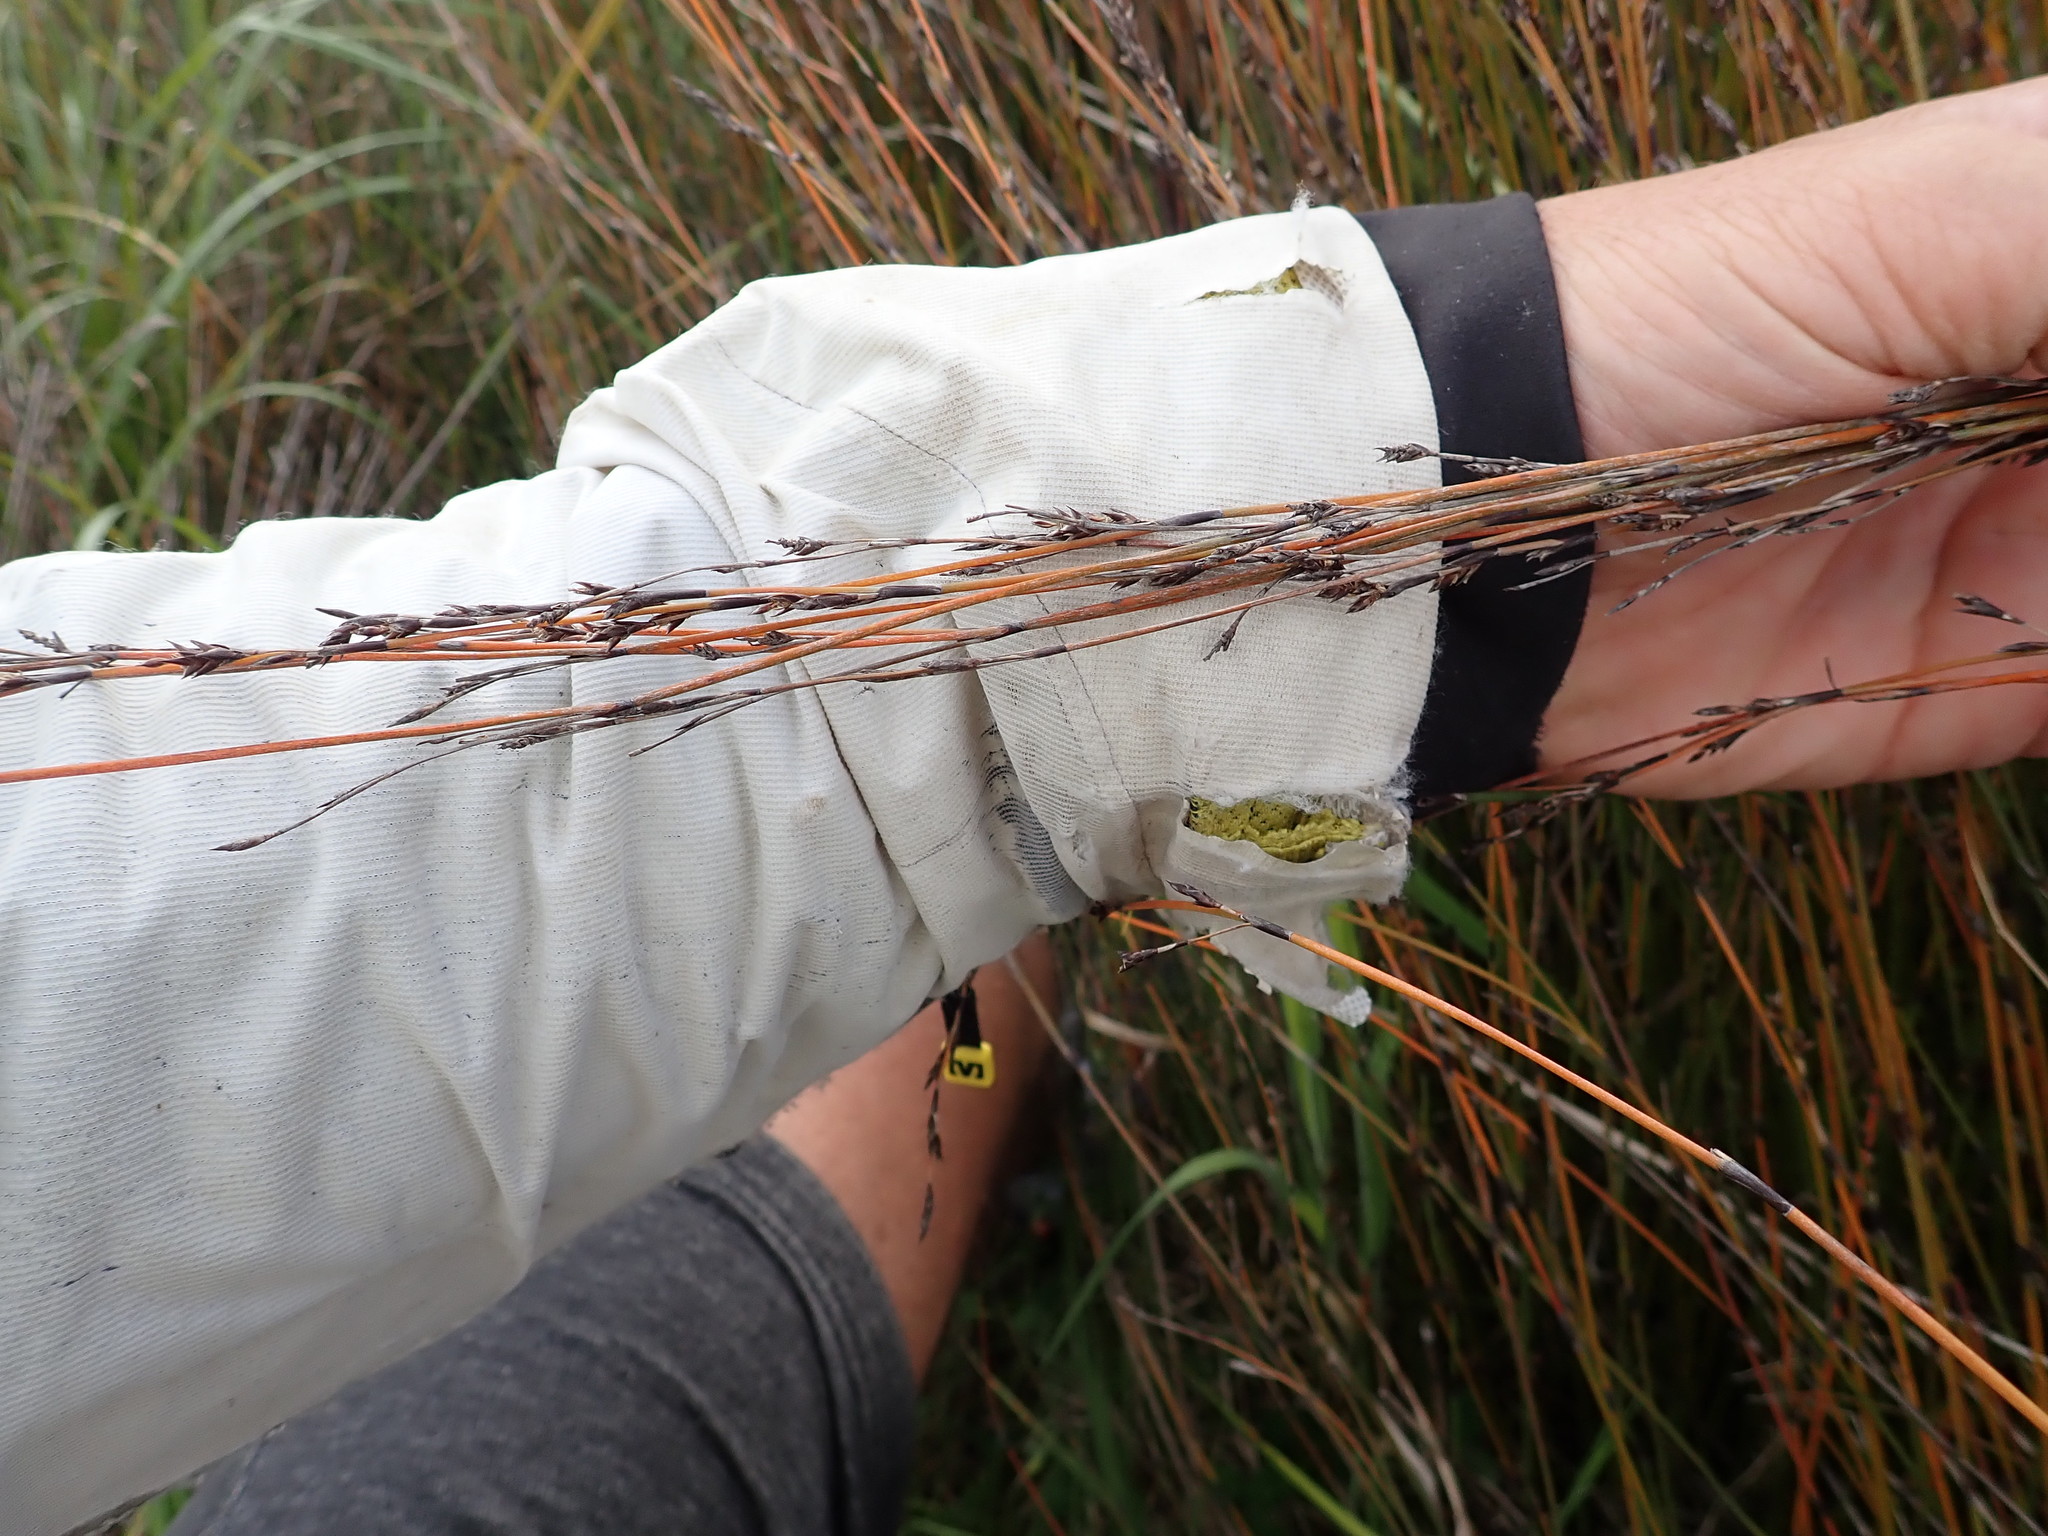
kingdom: Plantae
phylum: Tracheophyta
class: Liliopsida
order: Poales
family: Restionaceae
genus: Apodasmia
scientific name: Apodasmia similis
